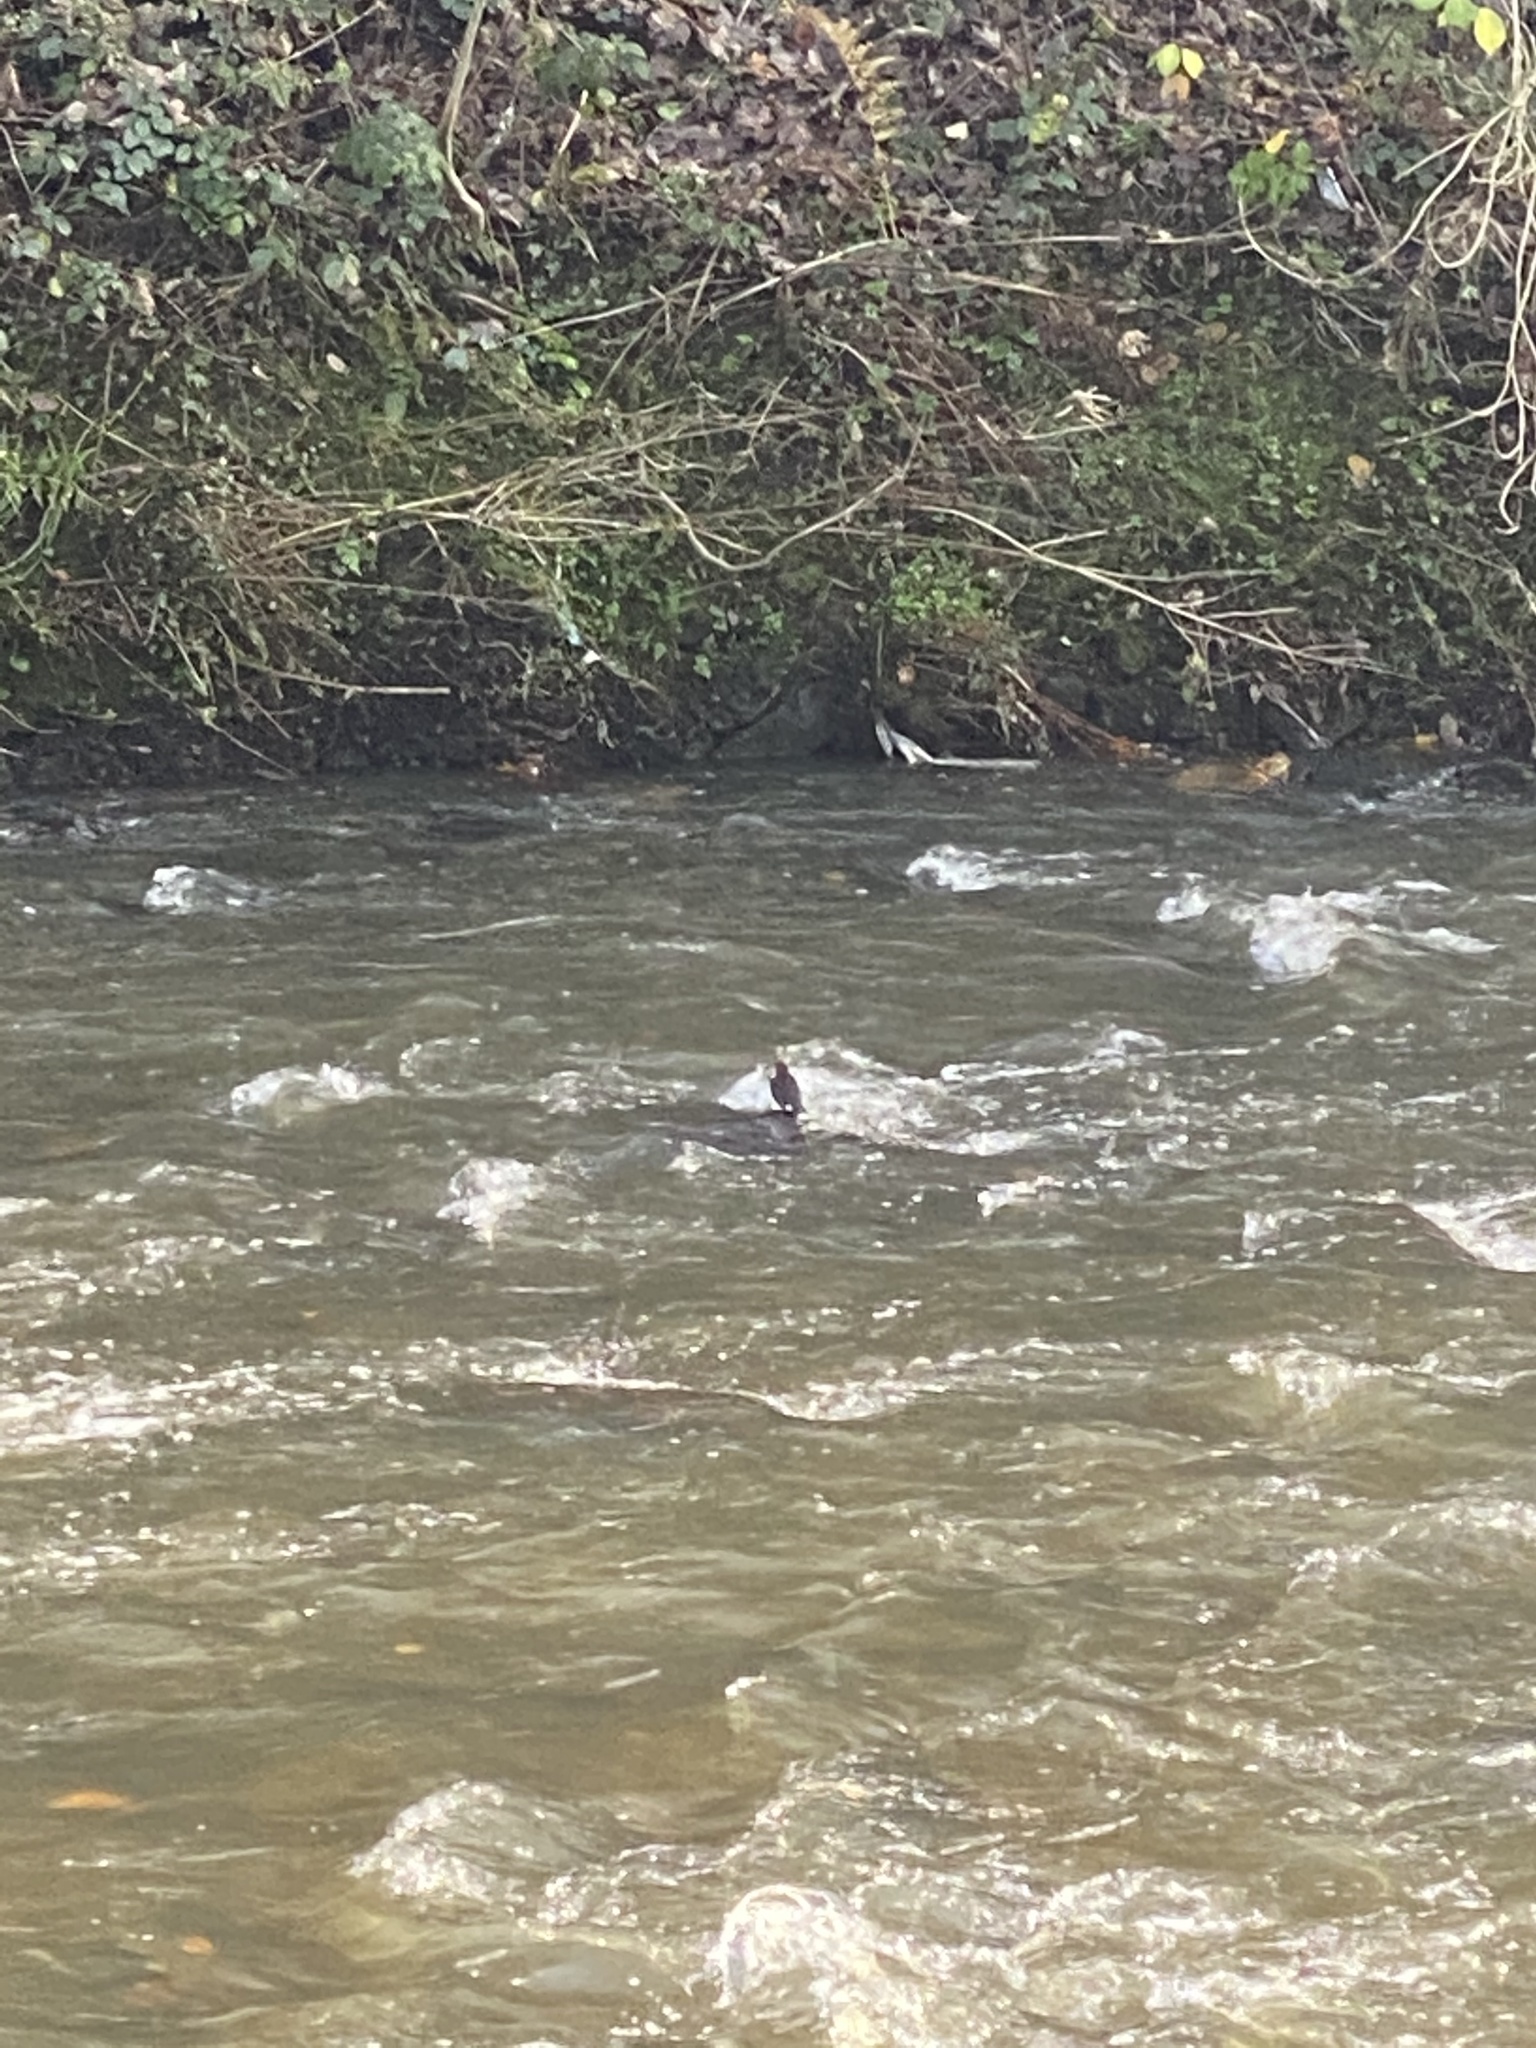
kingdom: Animalia
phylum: Chordata
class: Aves
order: Passeriformes
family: Cinclidae
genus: Cinclus
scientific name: Cinclus cinclus
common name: White-throated dipper
